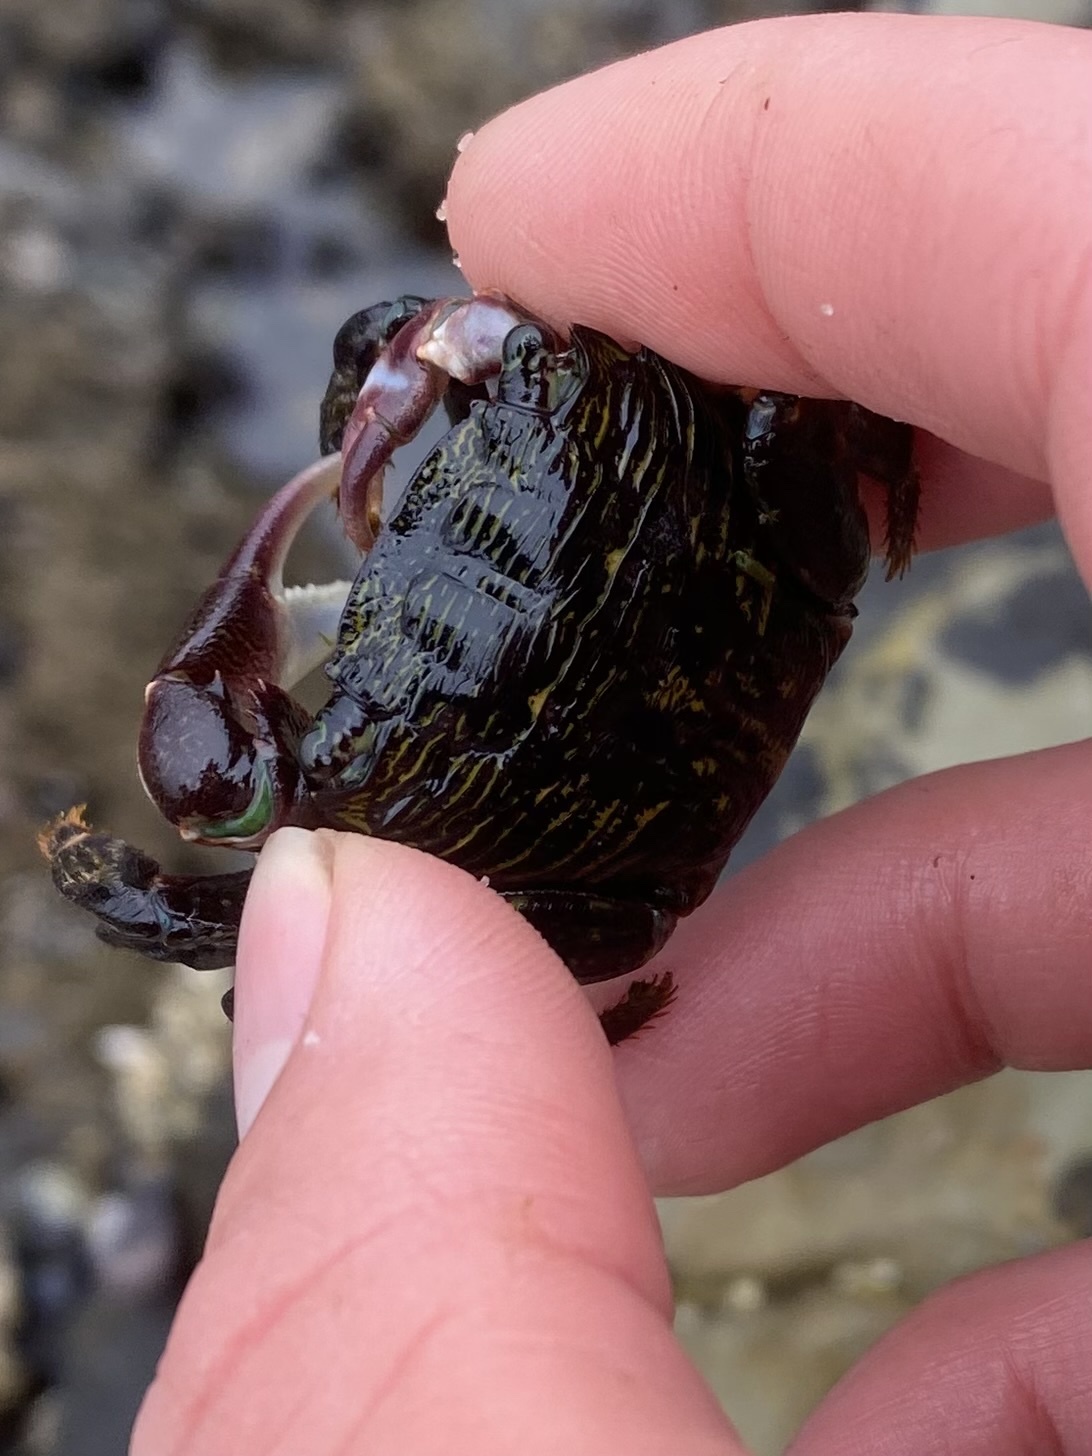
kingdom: Animalia
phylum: Arthropoda
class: Malacostraca
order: Decapoda
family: Grapsidae
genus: Pachygrapsus
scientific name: Pachygrapsus crassipes
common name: Striped shore crab
